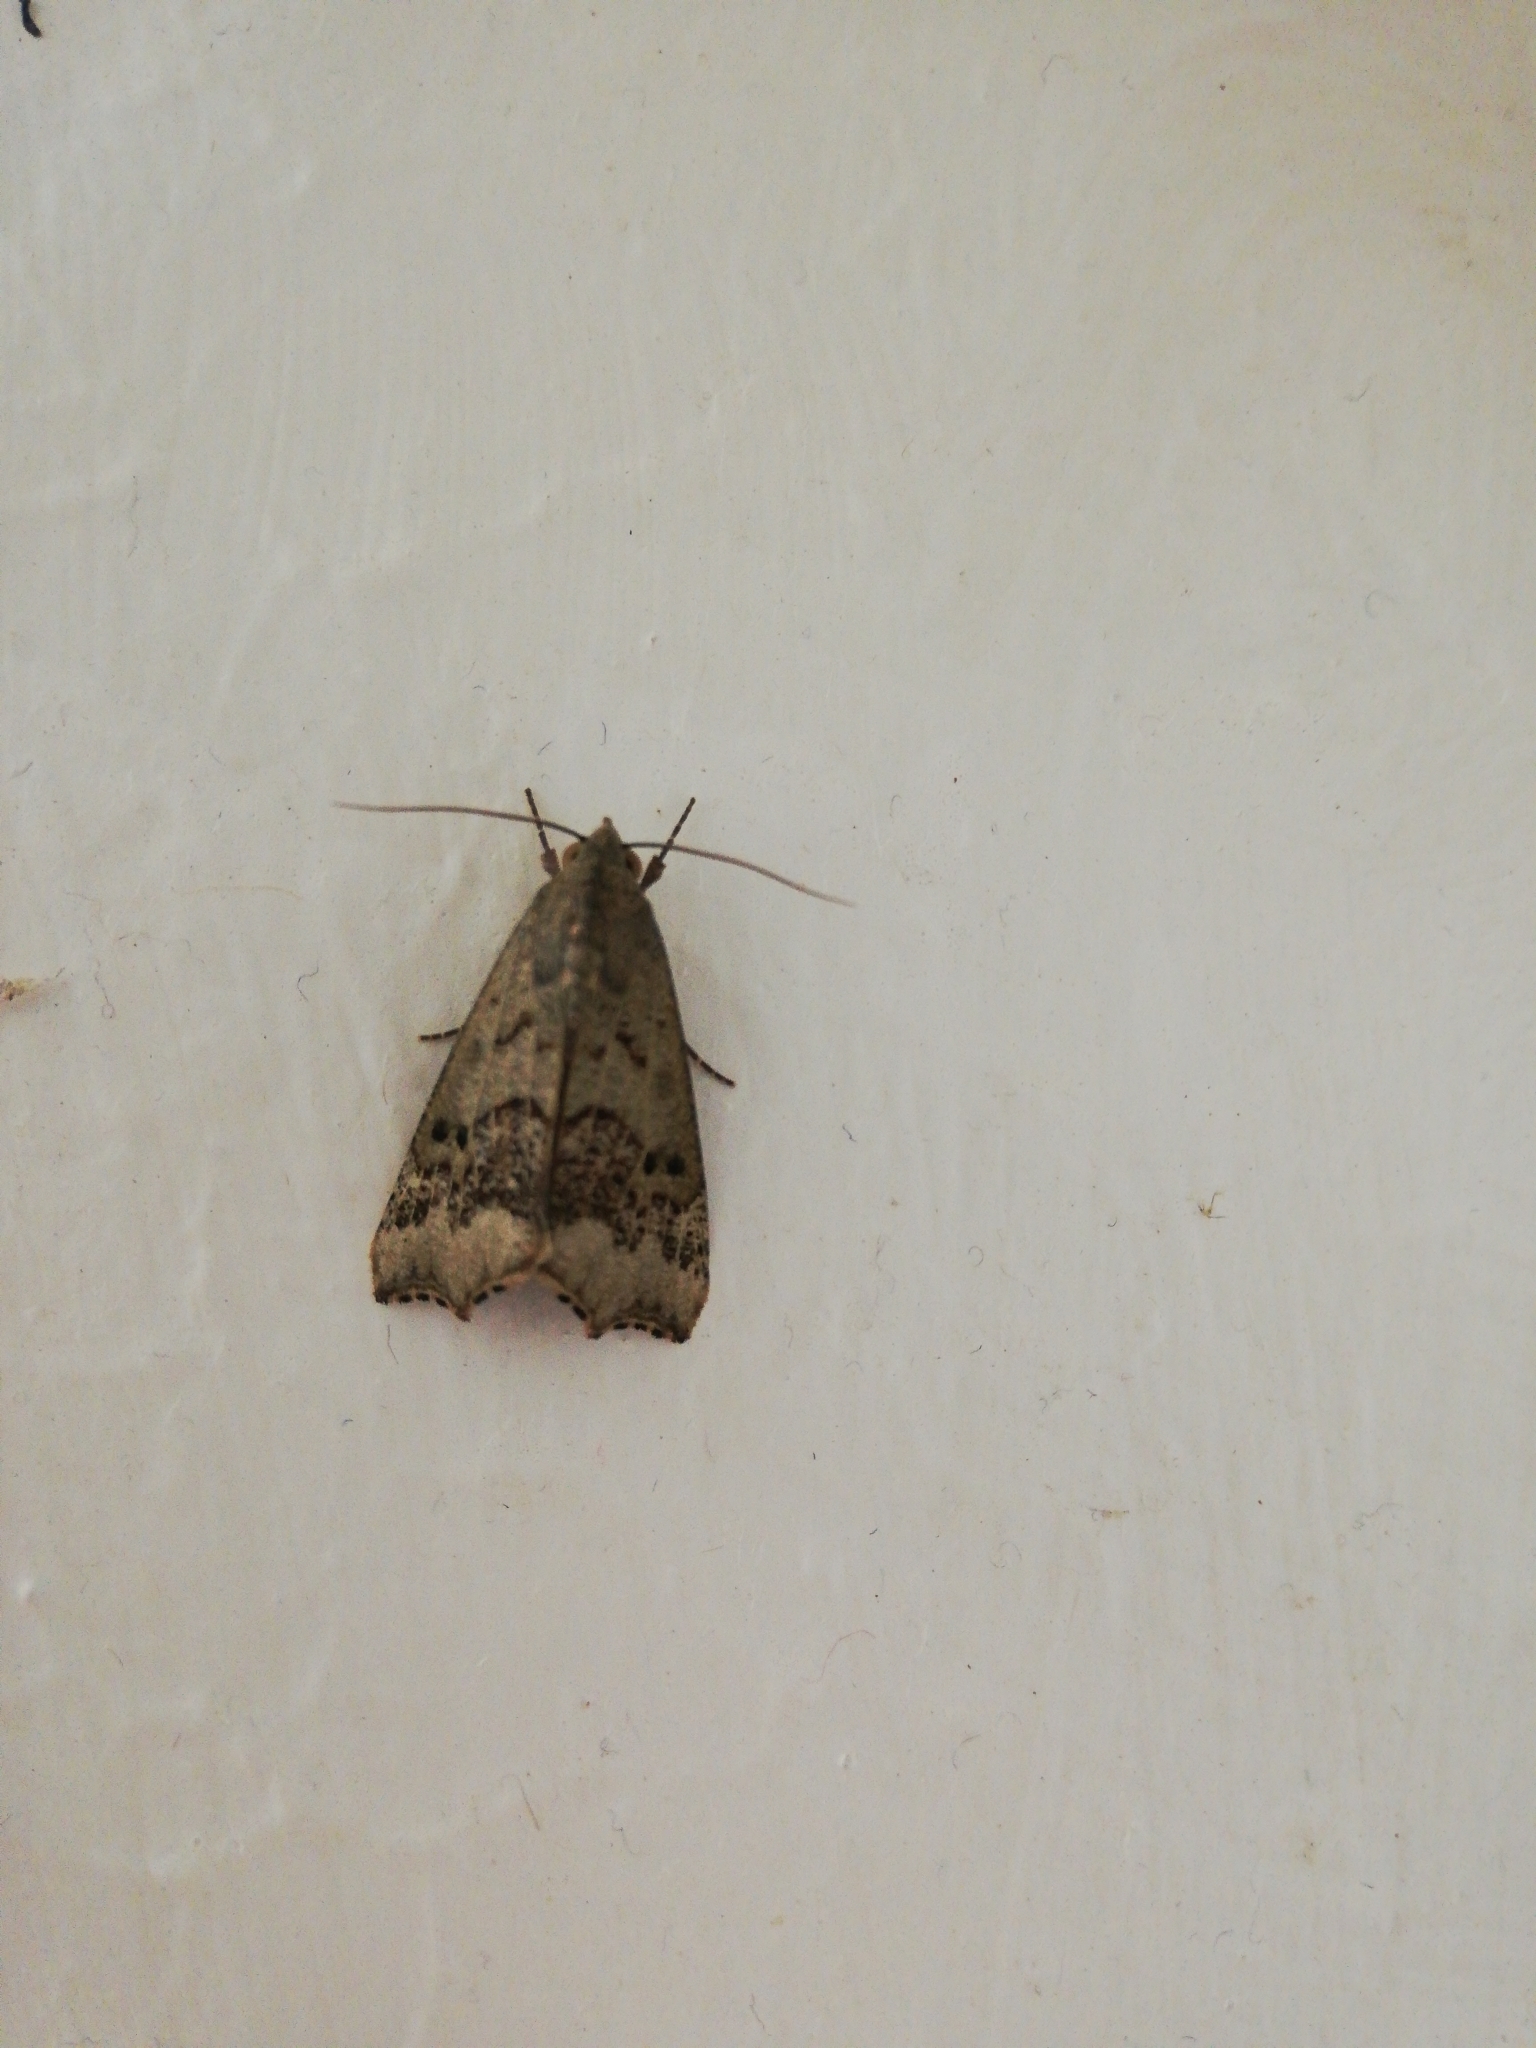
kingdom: Animalia
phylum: Arthropoda
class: Insecta
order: Lepidoptera
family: Erebidae
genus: Anomis
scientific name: Anomis sabulifera
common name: Angled gem
